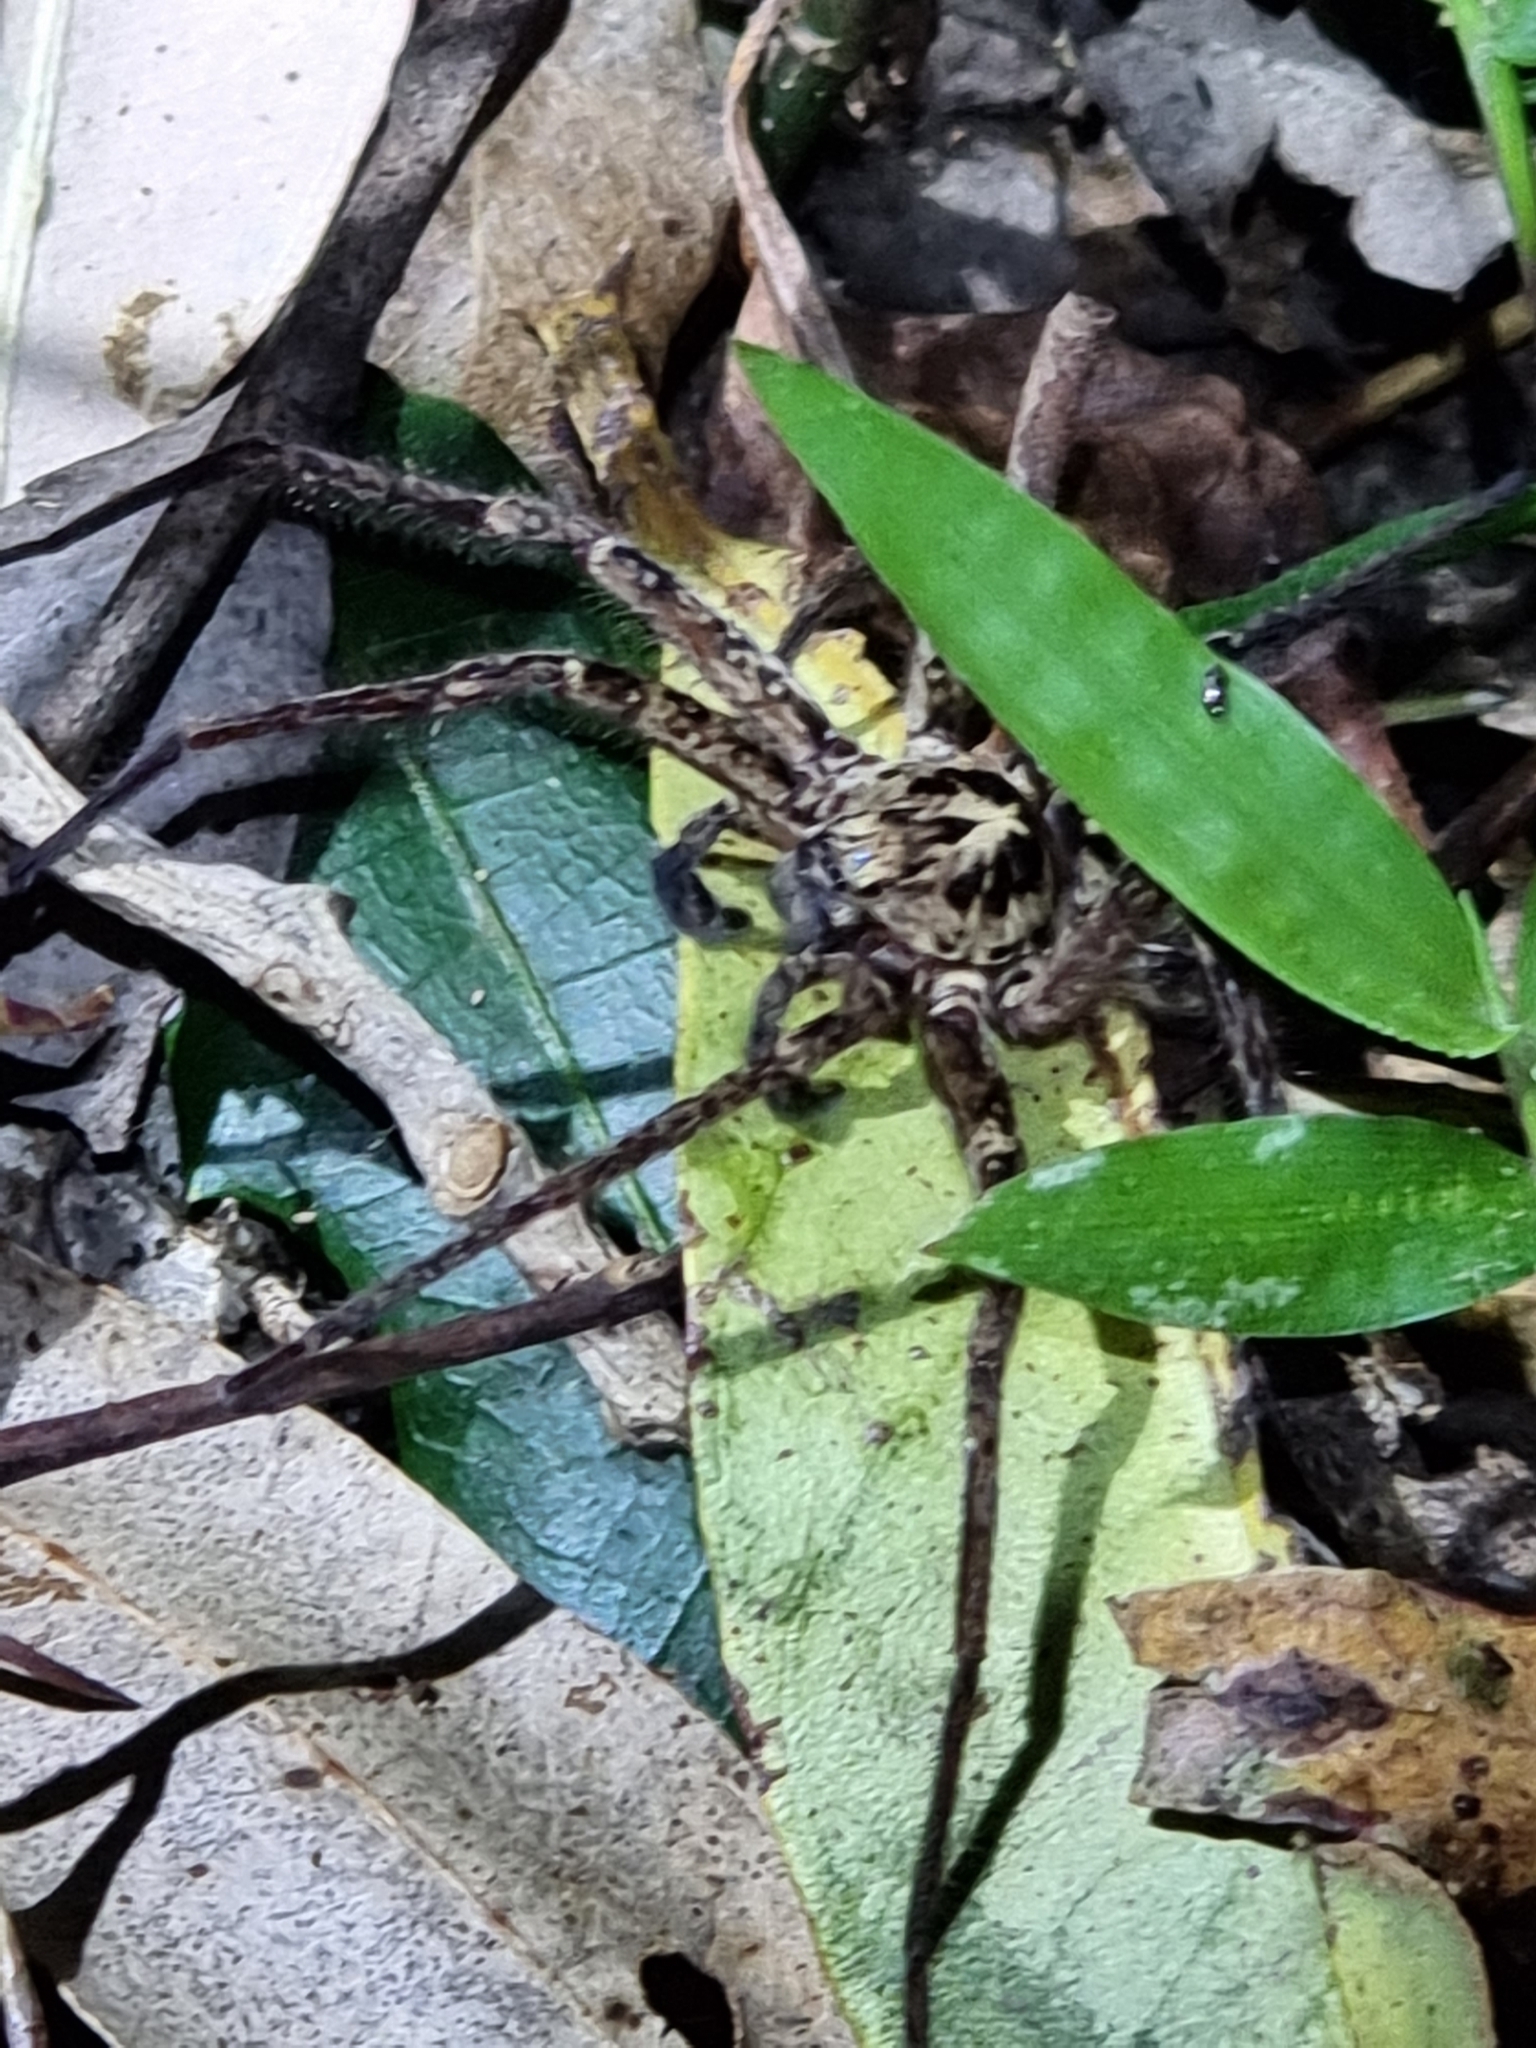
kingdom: Animalia
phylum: Arthropoda
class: Arachnida
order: Araneae
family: Sparassidae
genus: Heteropoda
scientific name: Heteropoda distincta
